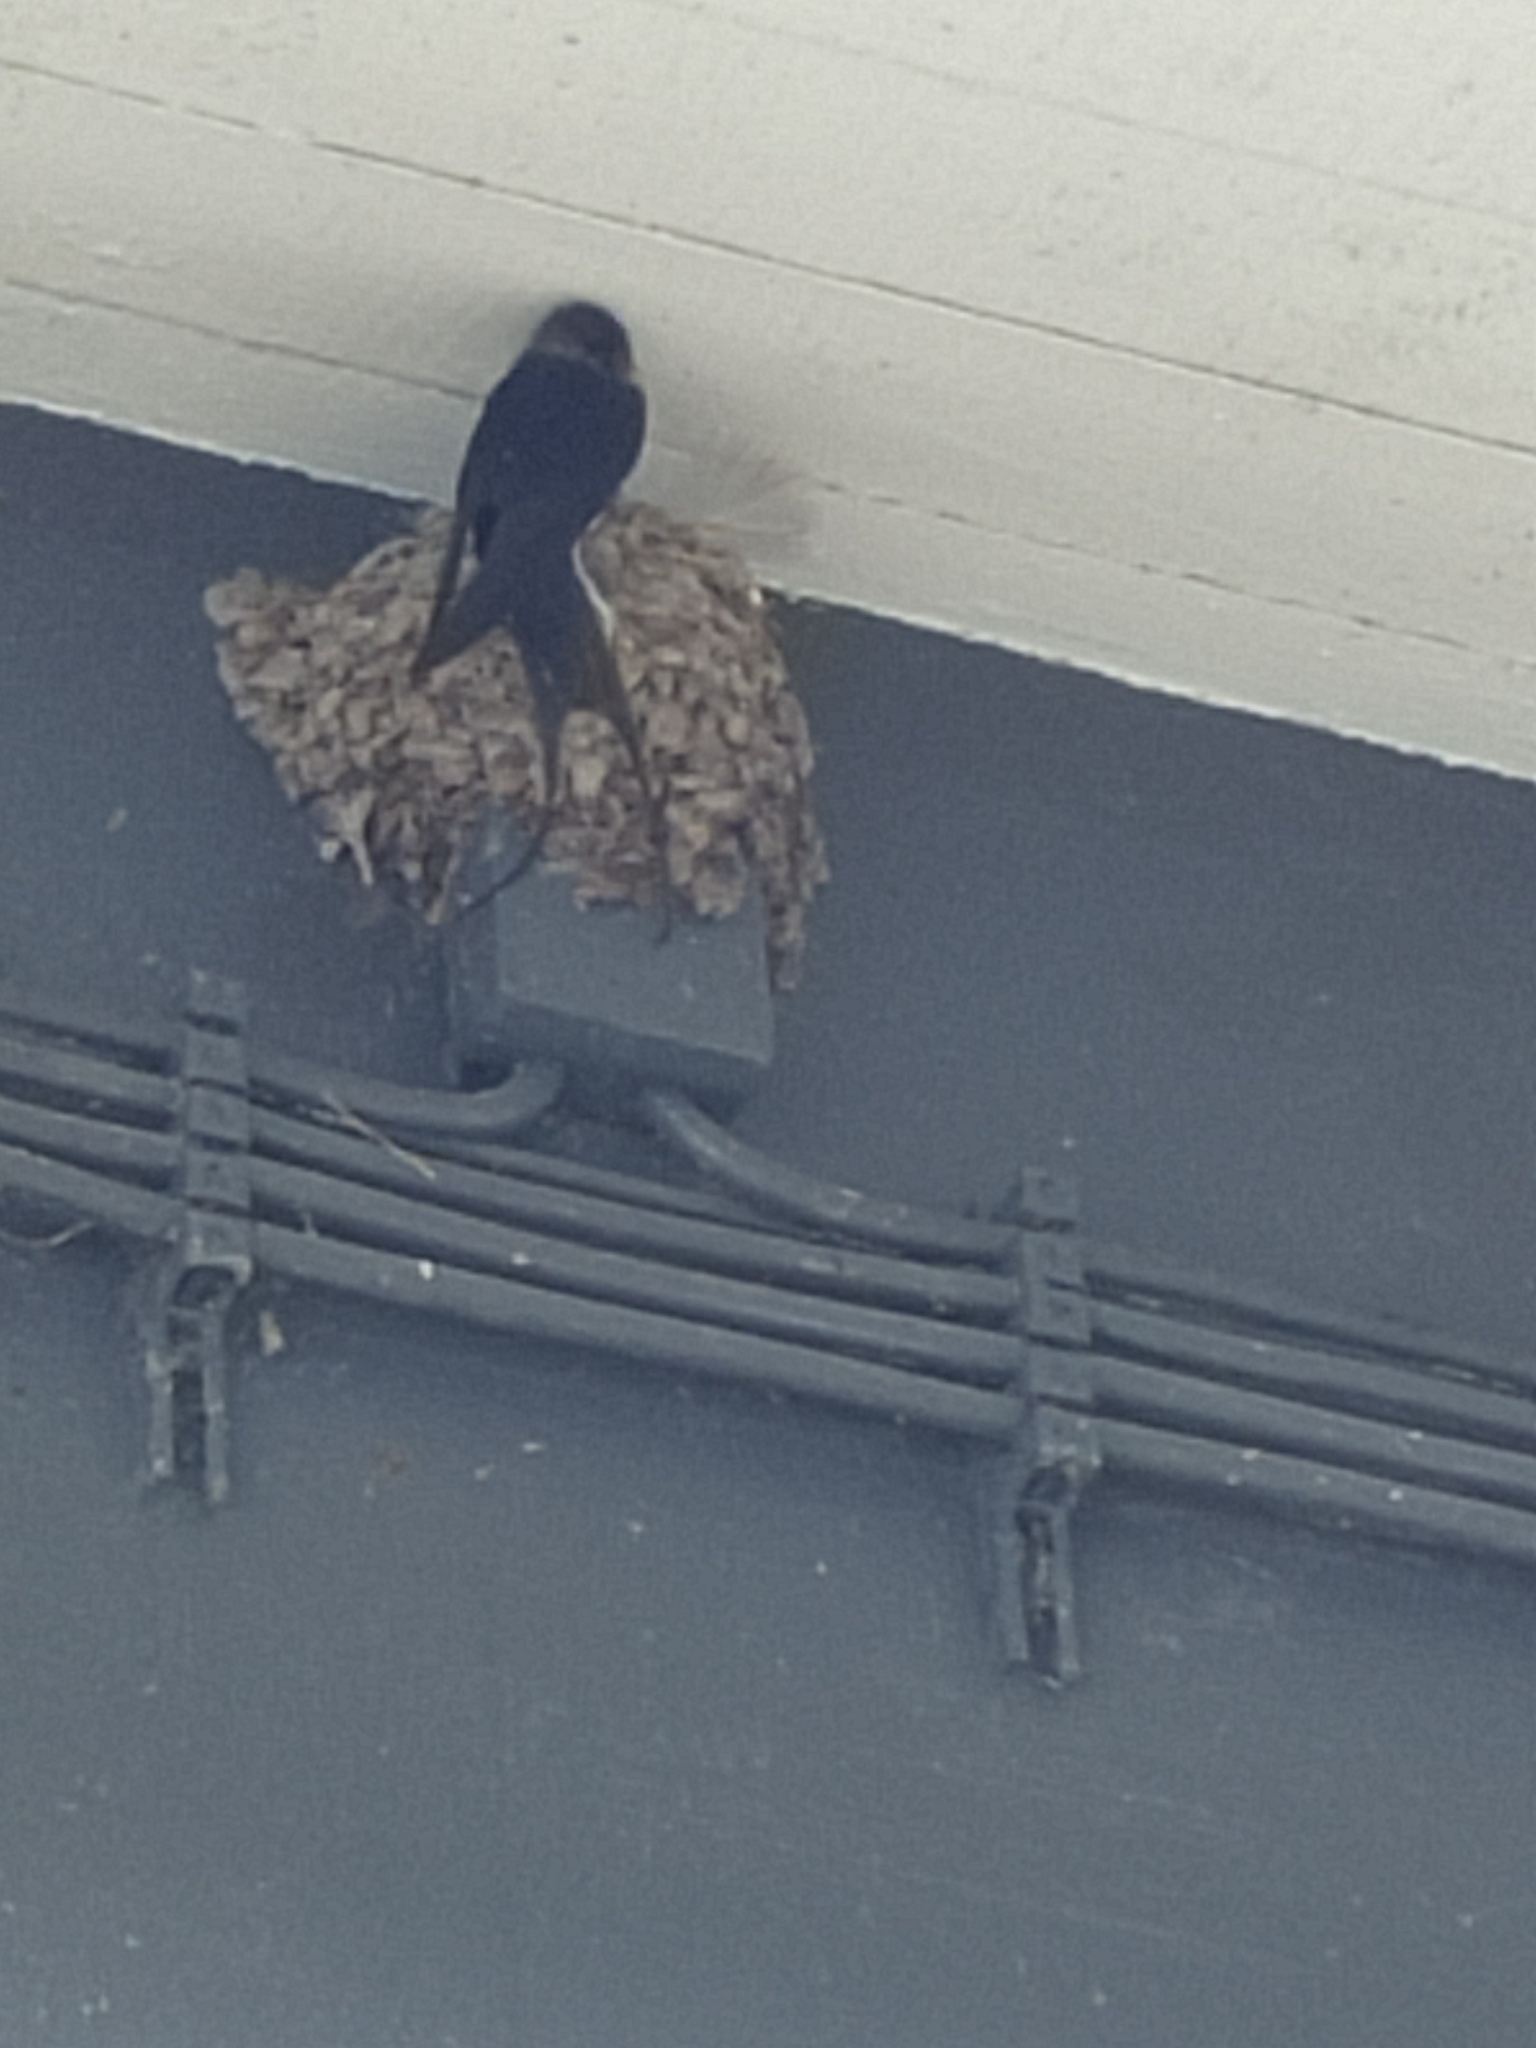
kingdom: Animalia
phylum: Chordata
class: Aves
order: Passeriformes
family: Hirundinidae
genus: Hirundo
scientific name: Hirundo rustica
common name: Barn swallow
